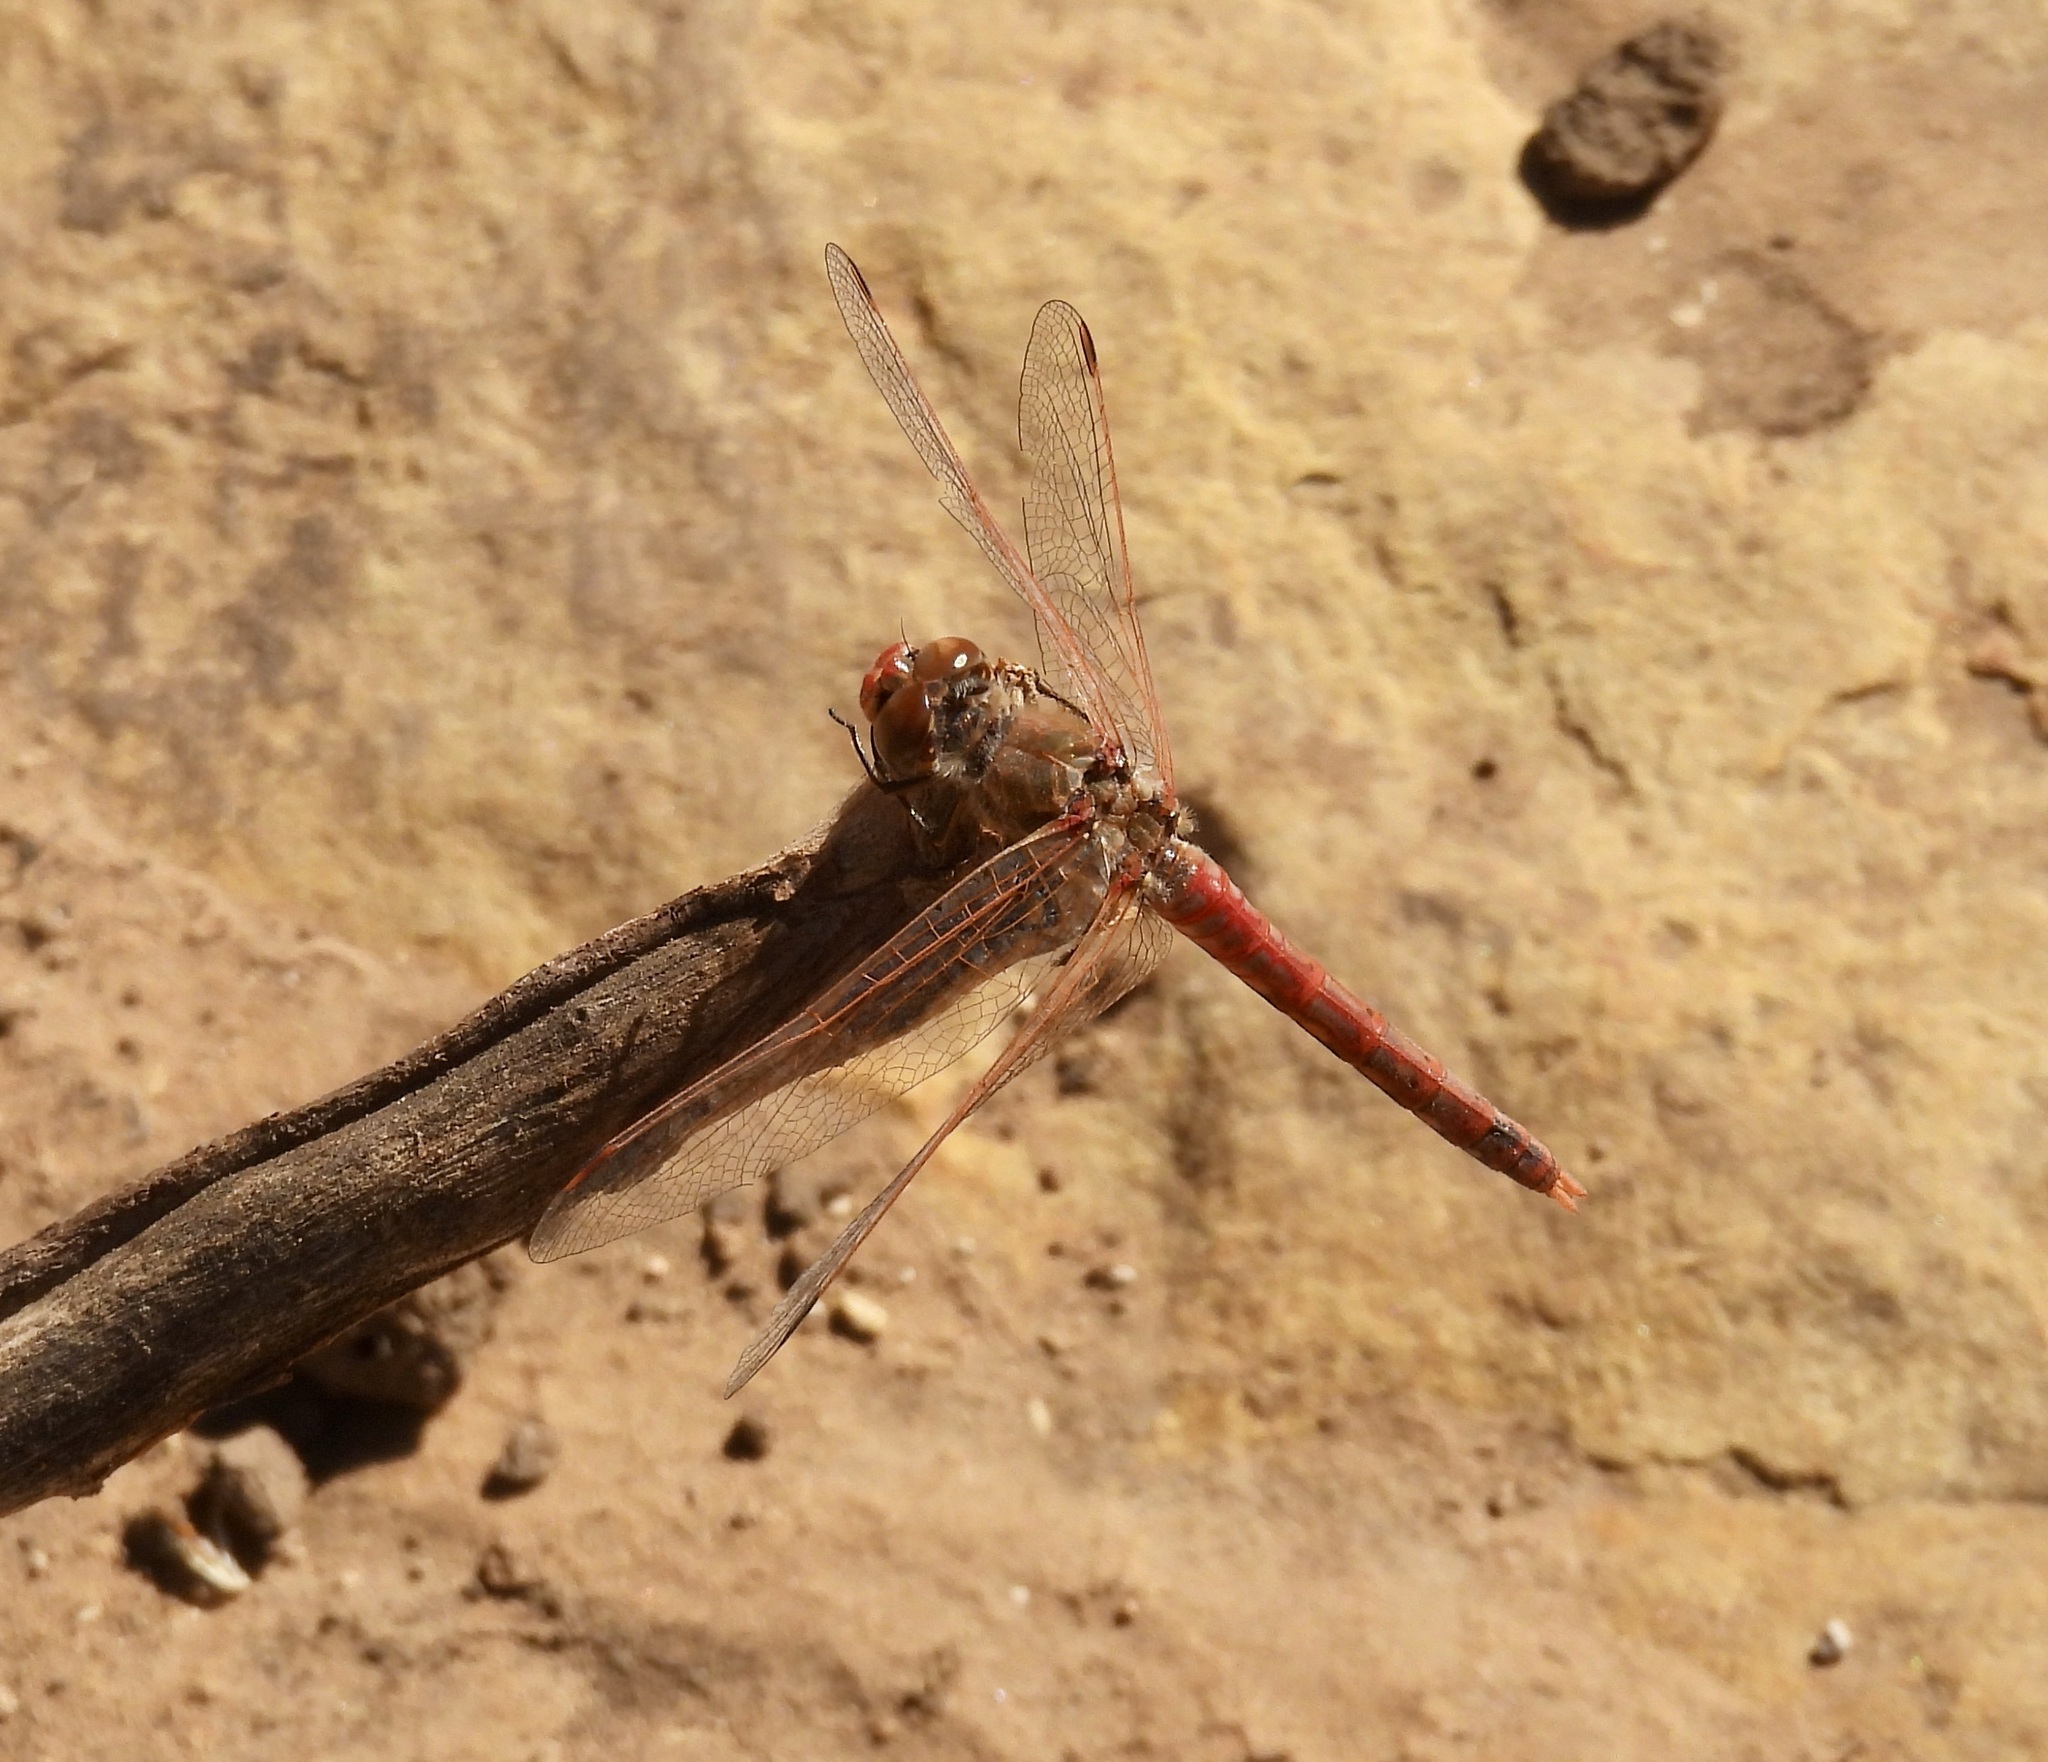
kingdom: Animalia
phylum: Arthropoda
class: Insecta
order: Odonata
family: Libellulidae
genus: Sympetrum
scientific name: Sympetrum corruptum
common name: Variegated meadowhawk
